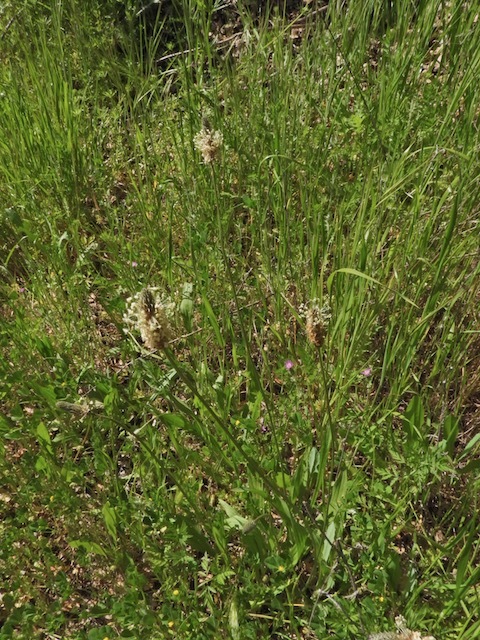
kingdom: Plantae
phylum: Tracheophyta
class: Magnoliopsida
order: Lamiales
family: Plantaginaceae
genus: Plantago
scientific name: Plantago lanceolata
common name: Ribwort plantain
